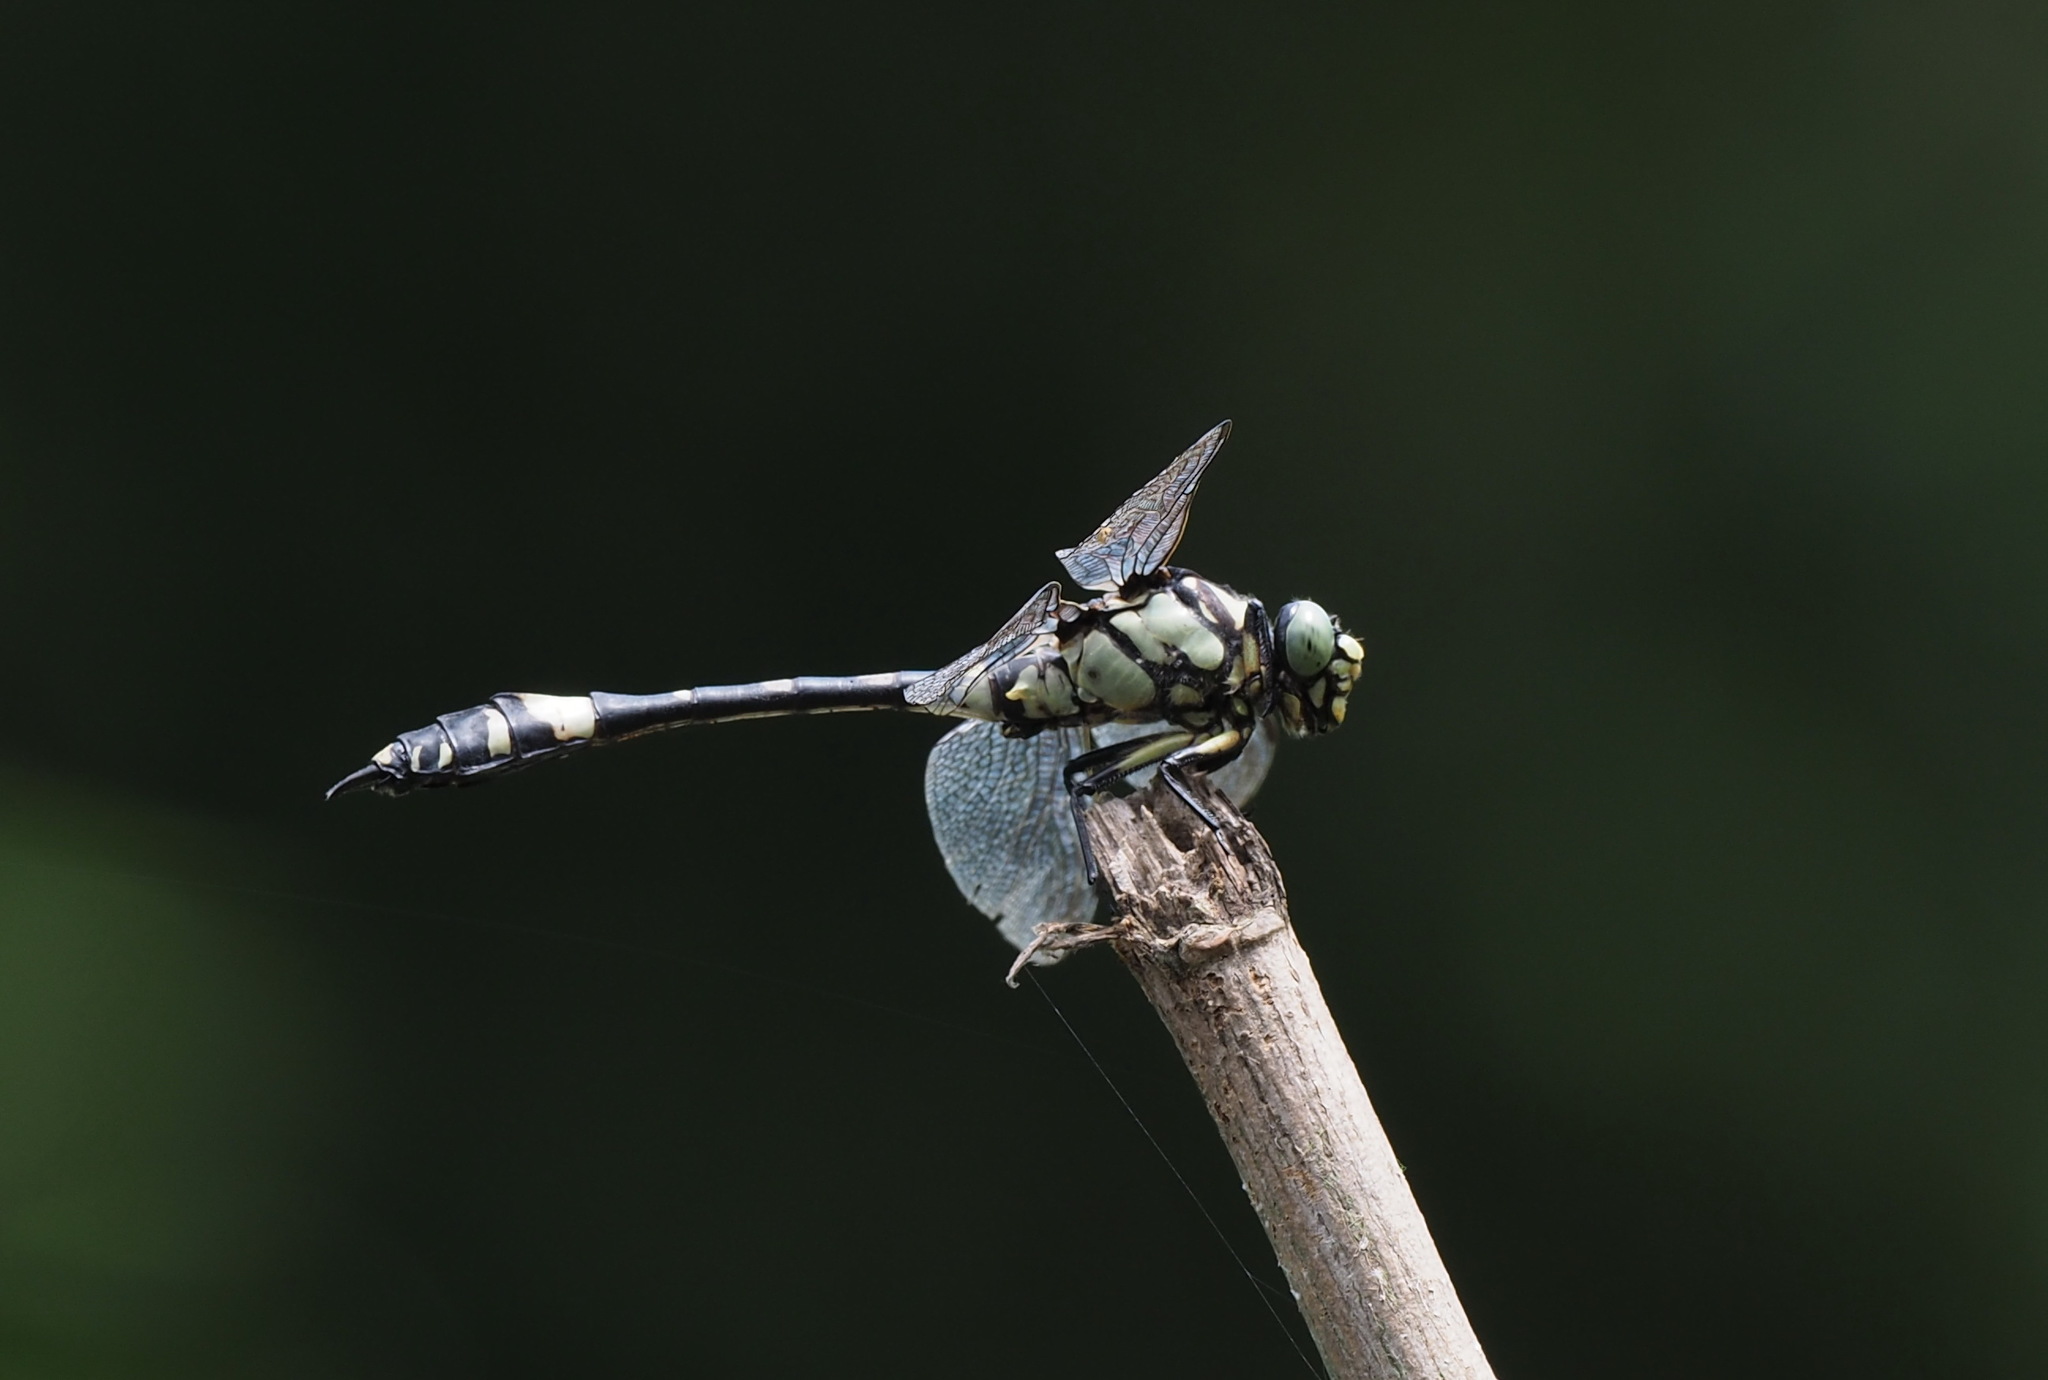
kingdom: Animalia
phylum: Arthropoda
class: Insecta
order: Odonata
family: Gomphidae
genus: Gomphidia
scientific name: Gomphidia confluens
